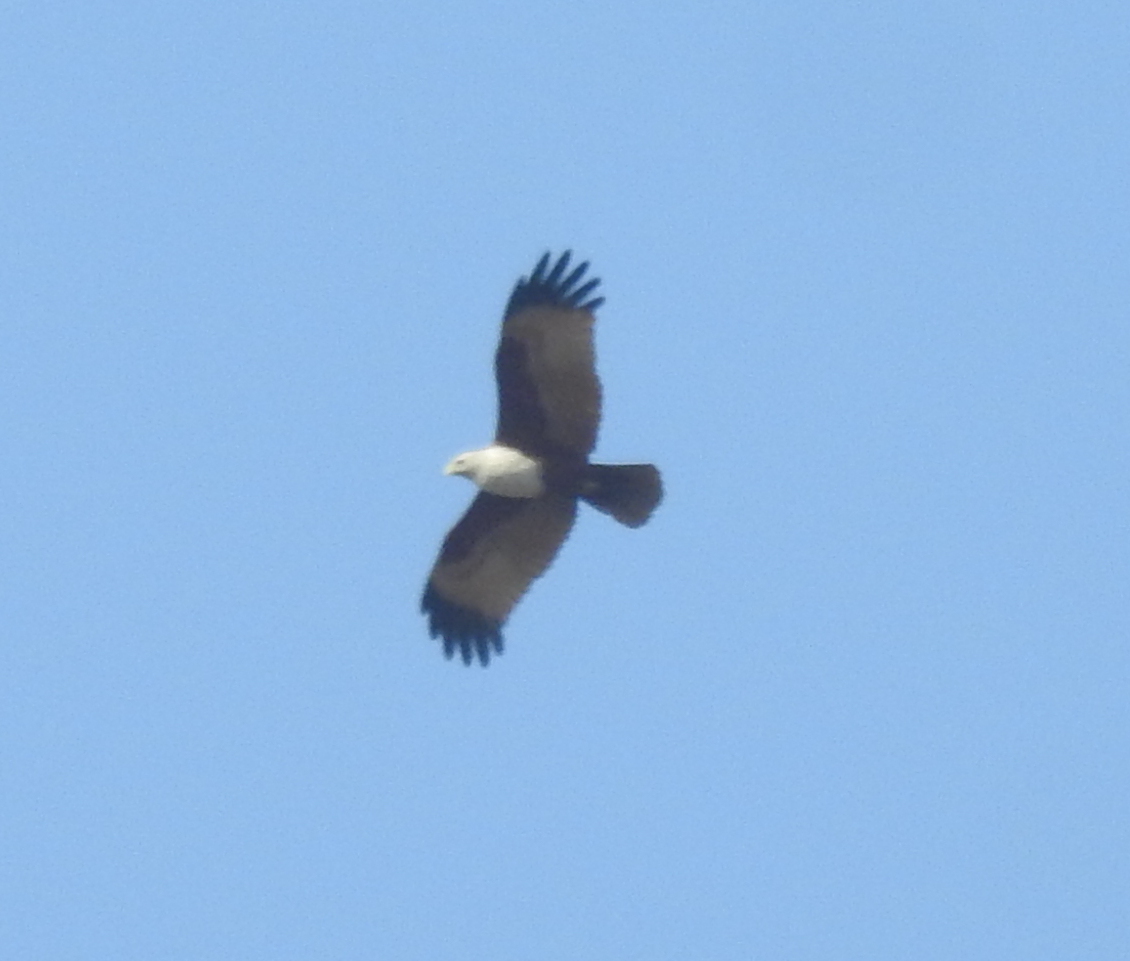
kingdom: Animalia
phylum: Chordata
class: Aves
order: Accipitriformes
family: Accipitridae
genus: Haliastur
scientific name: Haliastur indus
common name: Brahminy kite
